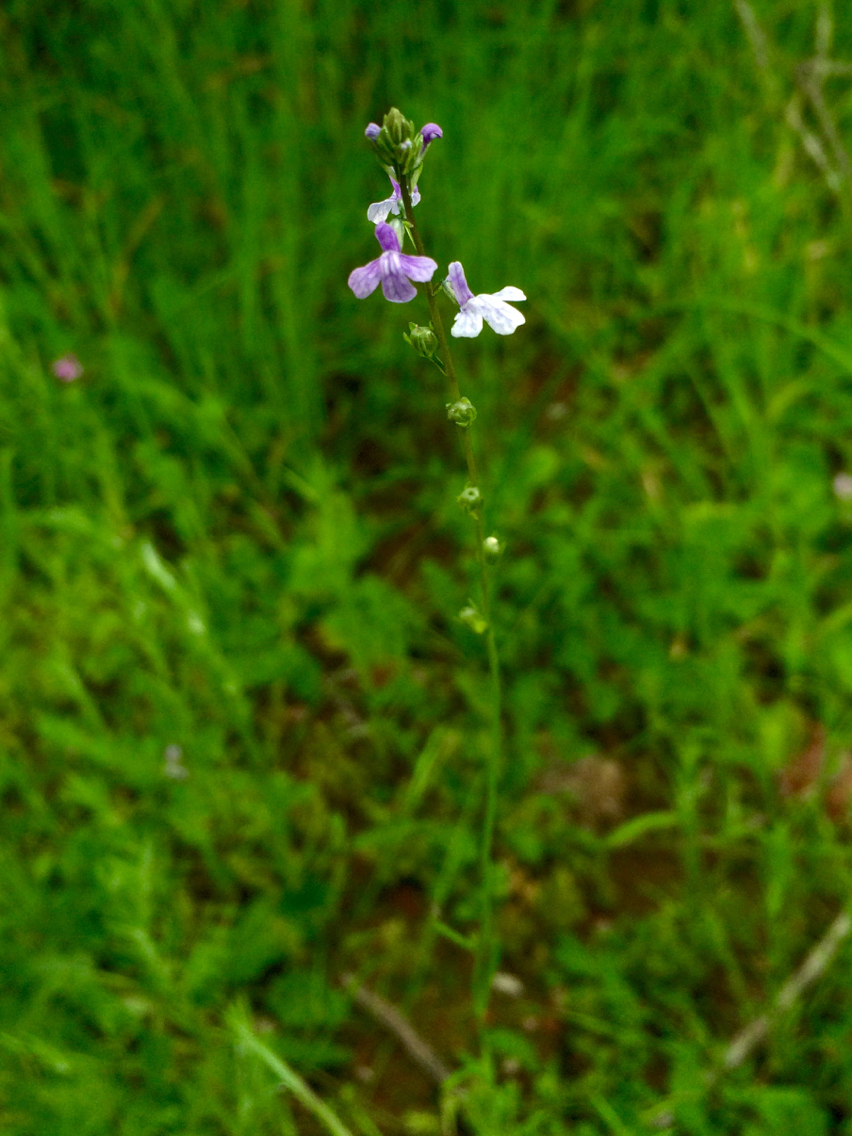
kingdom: Plantae
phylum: Tracheophyta
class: Magnoliopsida
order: Lamiales
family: Plantaginaceae
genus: Nuttallanthus
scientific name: Nuttallanthus texanus
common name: Texas toadflax
